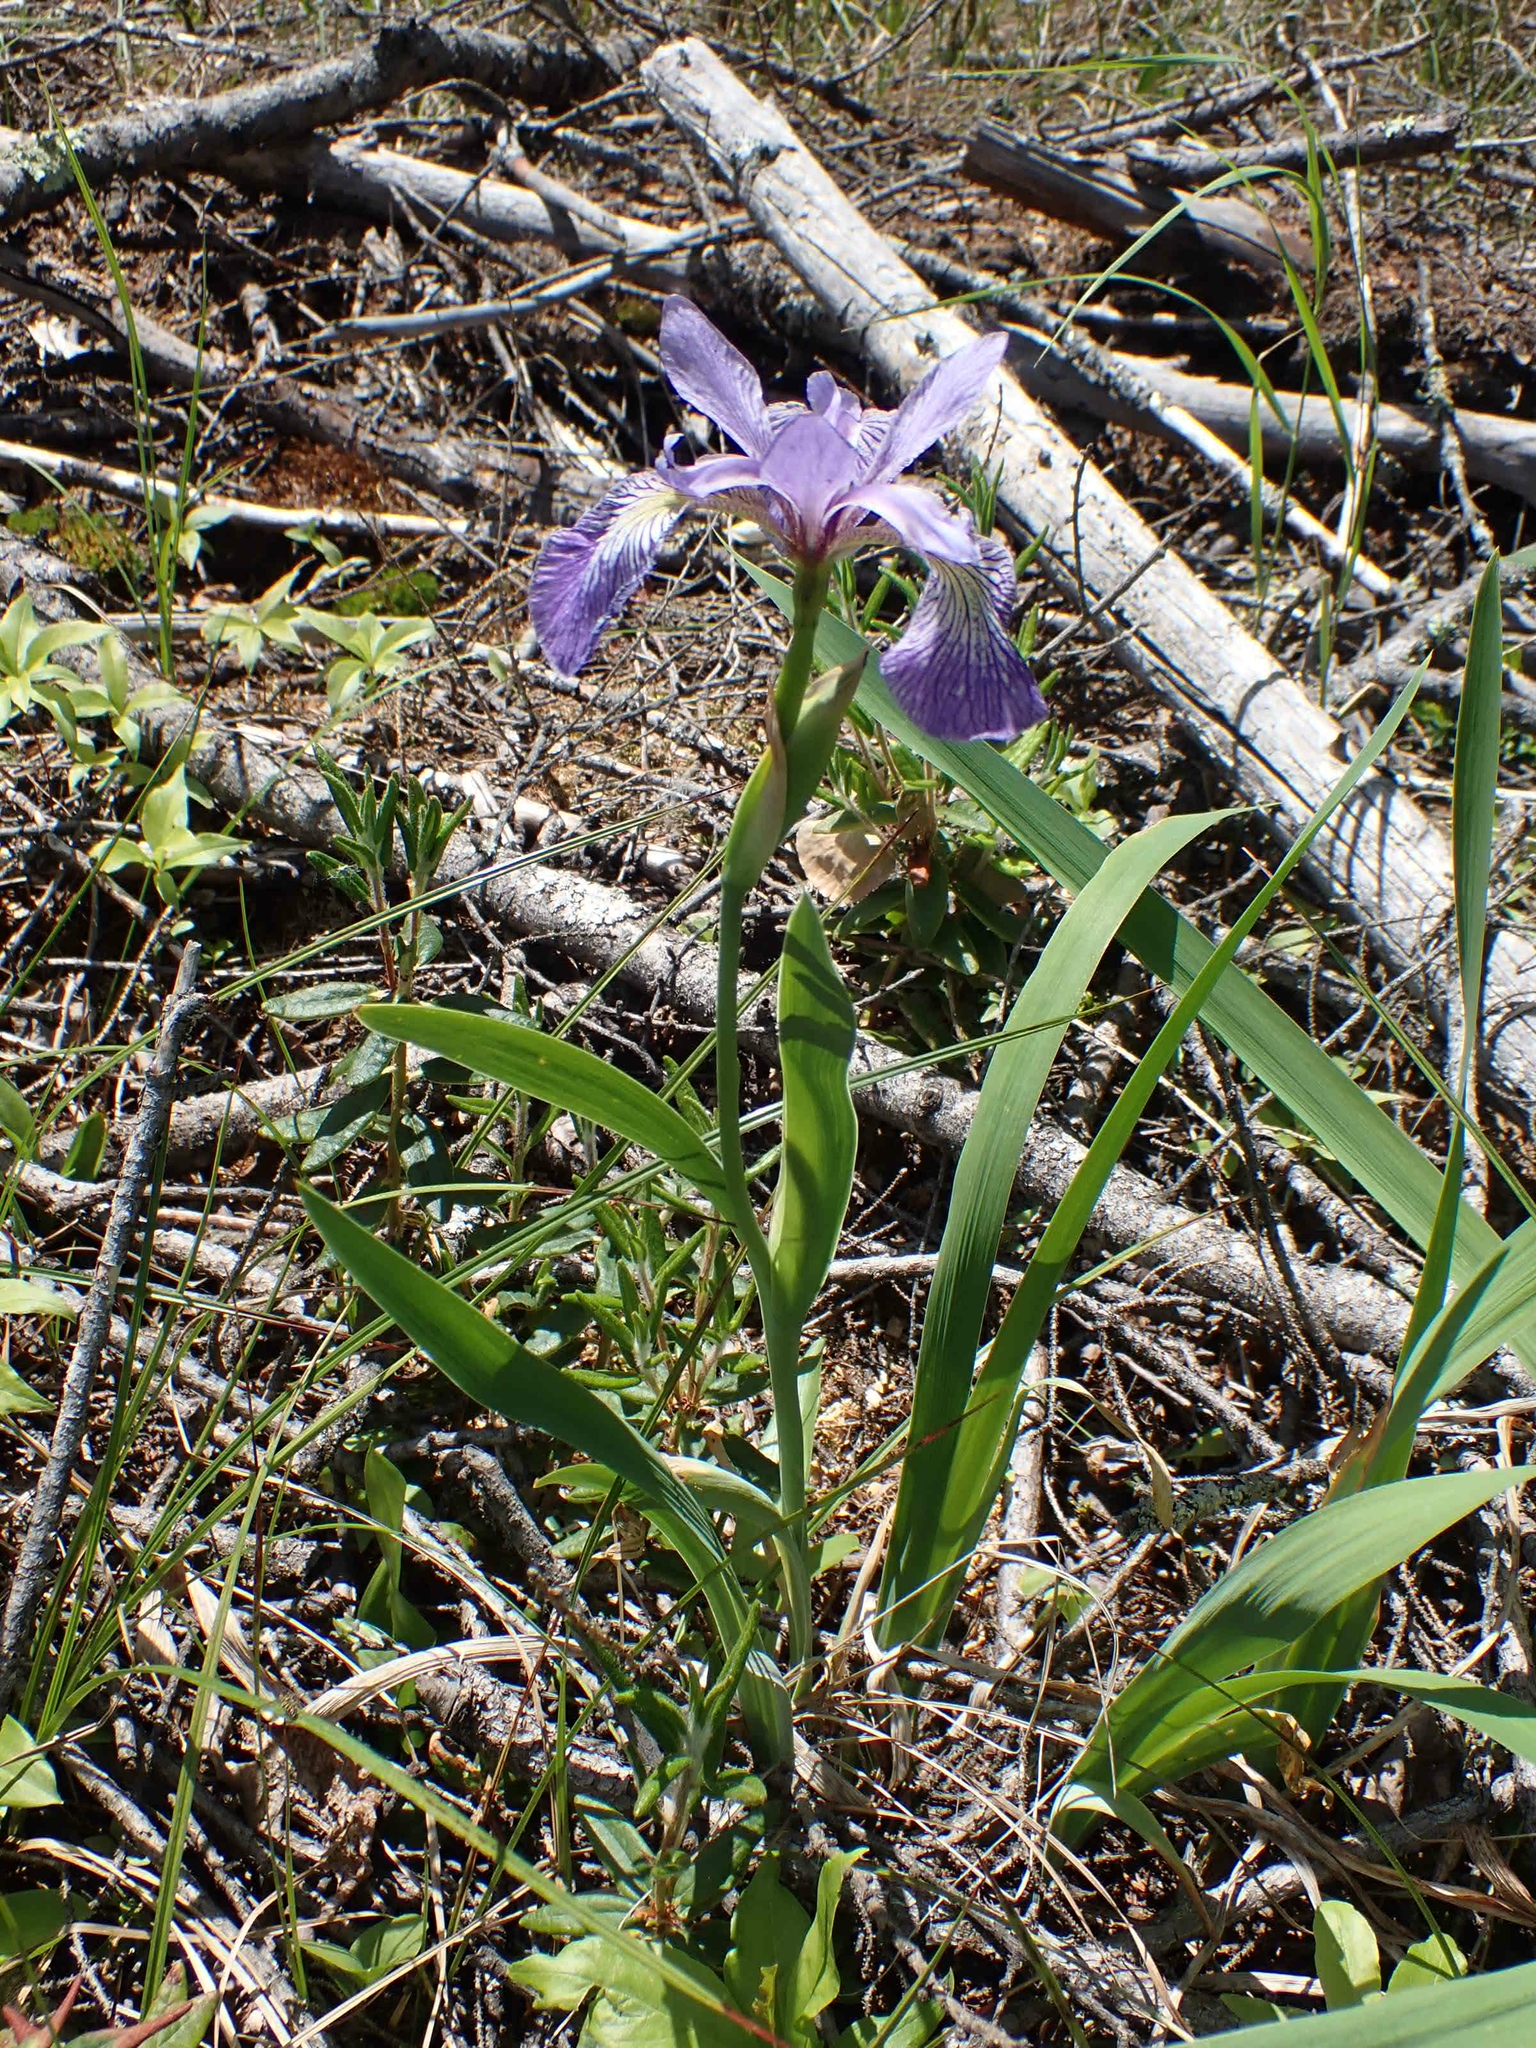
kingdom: Plantae
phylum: Tracheophyta
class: Liliopsida
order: Asparagales
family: Iridaceae
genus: Iris
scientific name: Iris versicolor
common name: Purple iris
